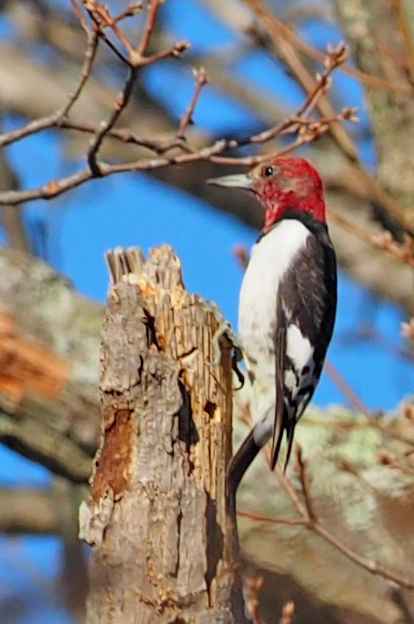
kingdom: Animalia
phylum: Chordata
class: Aves
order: Piciformes
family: Picidae
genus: Melanerpes
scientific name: Melanerpes erythrocephalus
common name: Red-headed woodpecker
